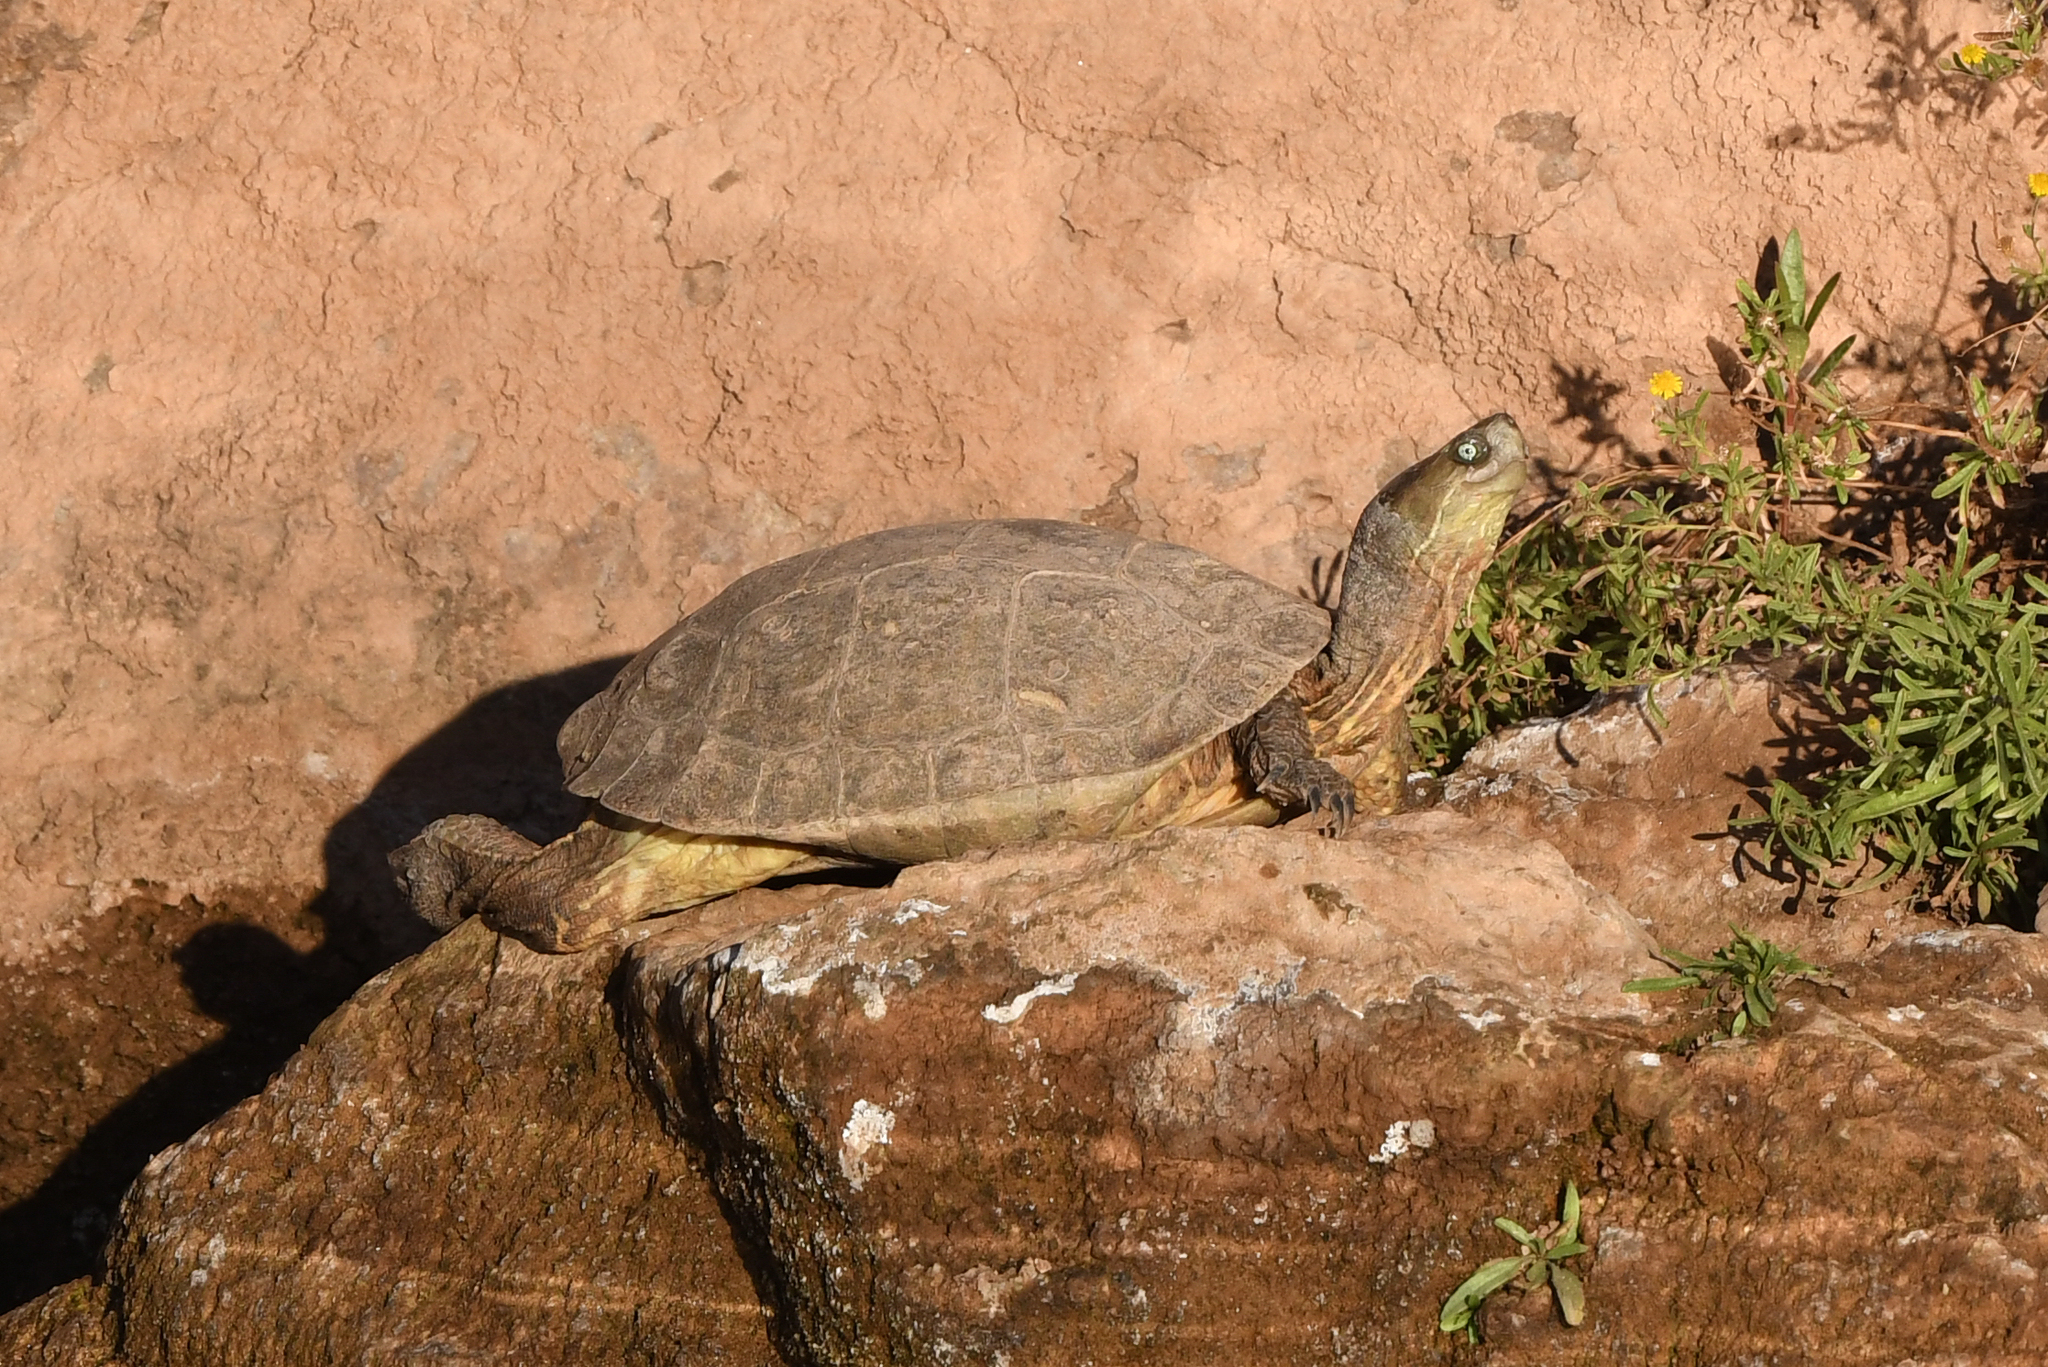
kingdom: Animalia
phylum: Chordata
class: Testudines
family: Geoemydidae
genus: Mauremys
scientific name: Mauremys leprosa
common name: Mediterranean pond turtle
